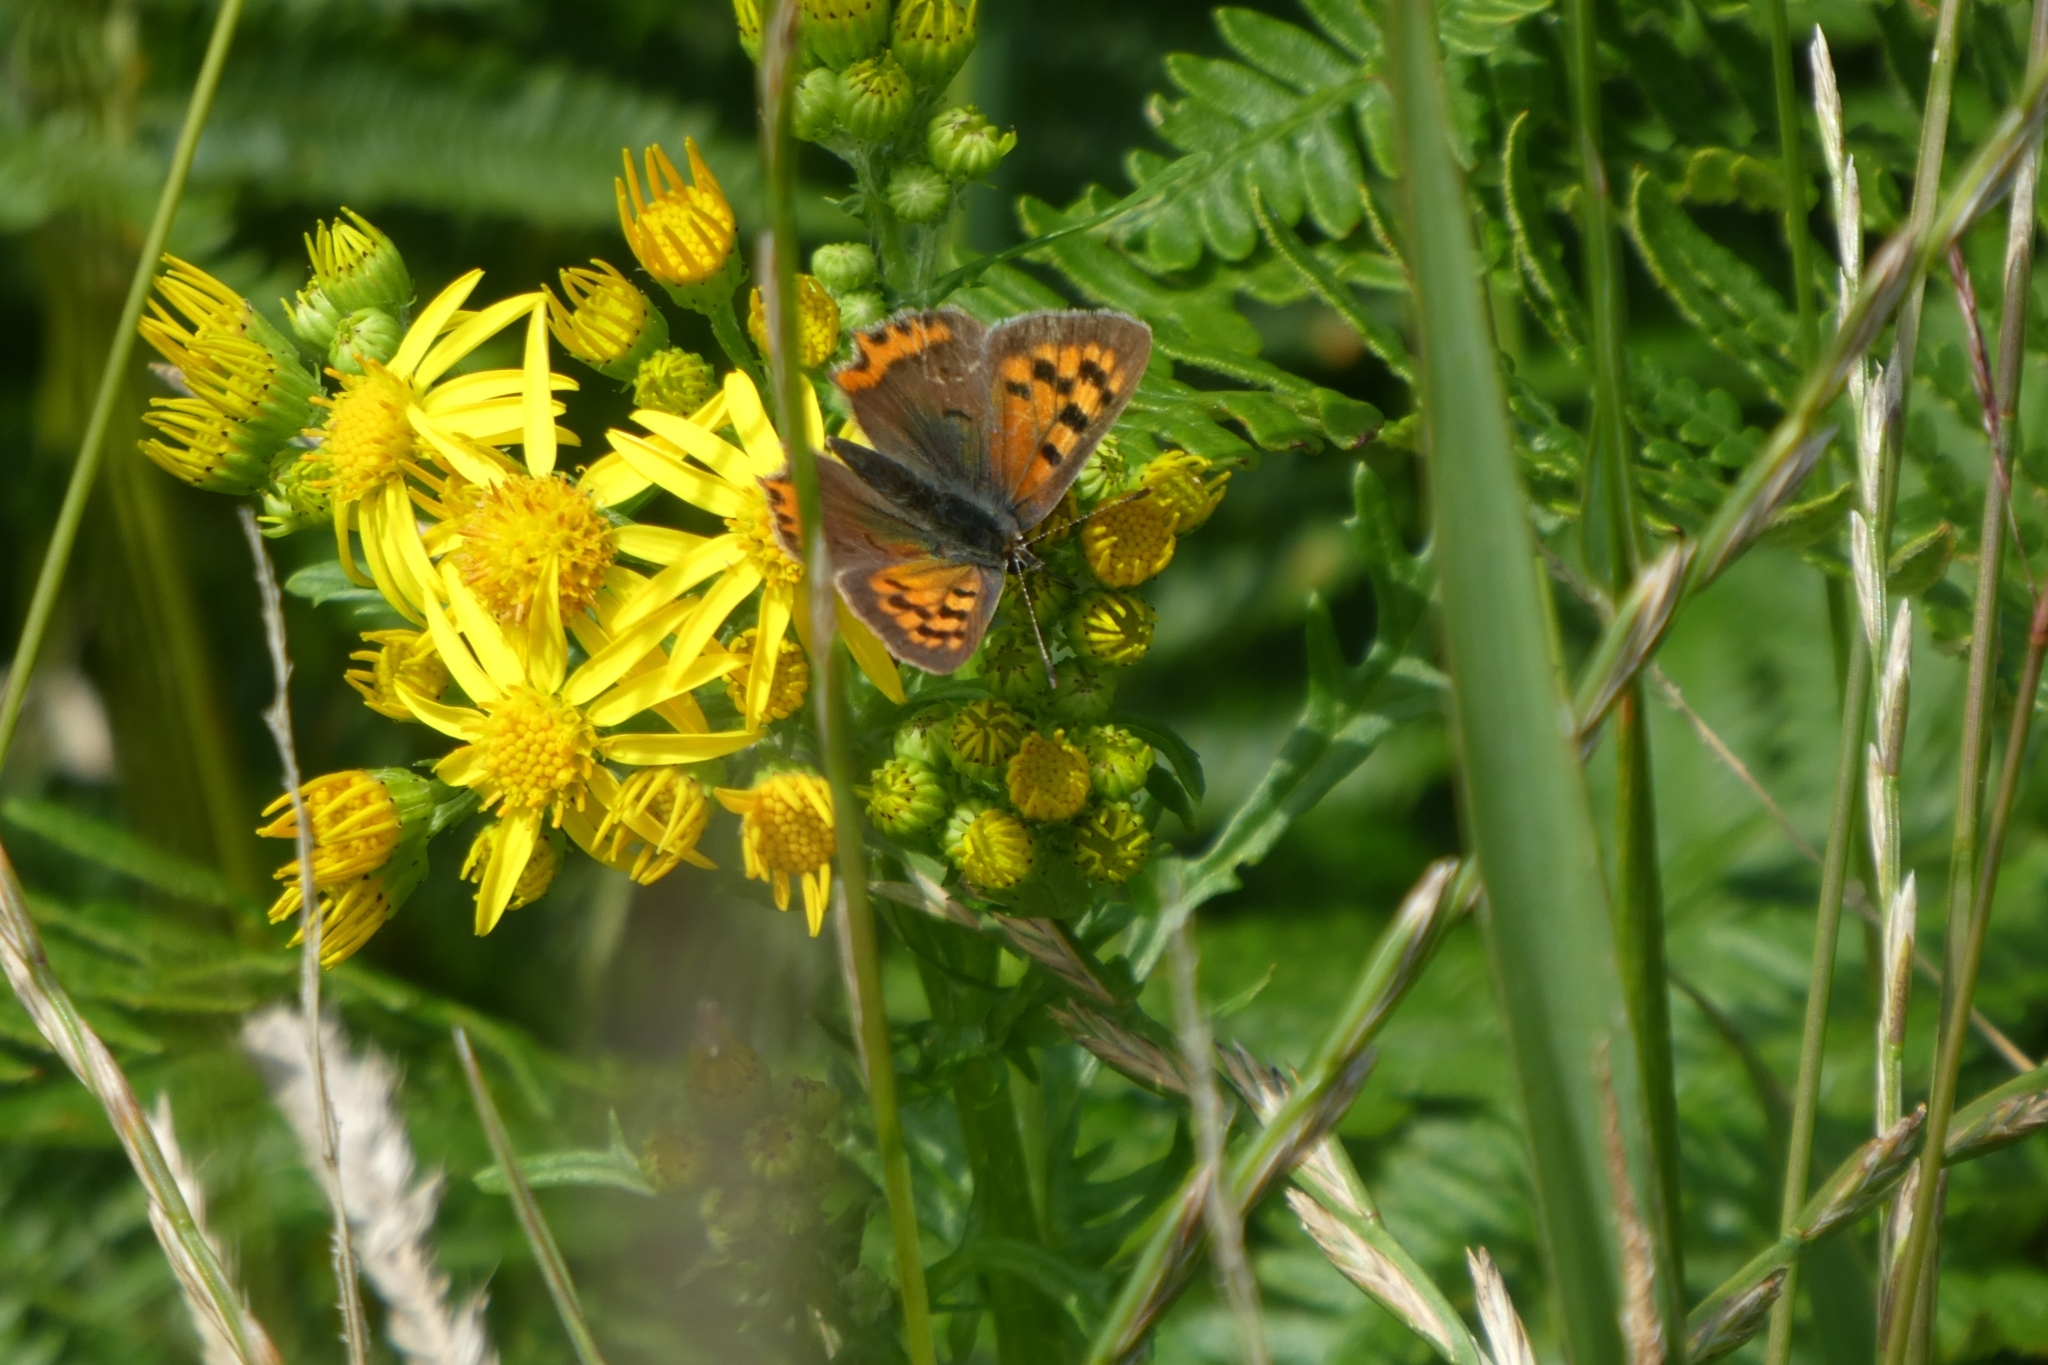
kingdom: Animalia
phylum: Arthropoda
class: Insecta
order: Lepidoptera
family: Lycaenidae
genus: Lycaena
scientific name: Lycaena phlaeas
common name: Small copper
